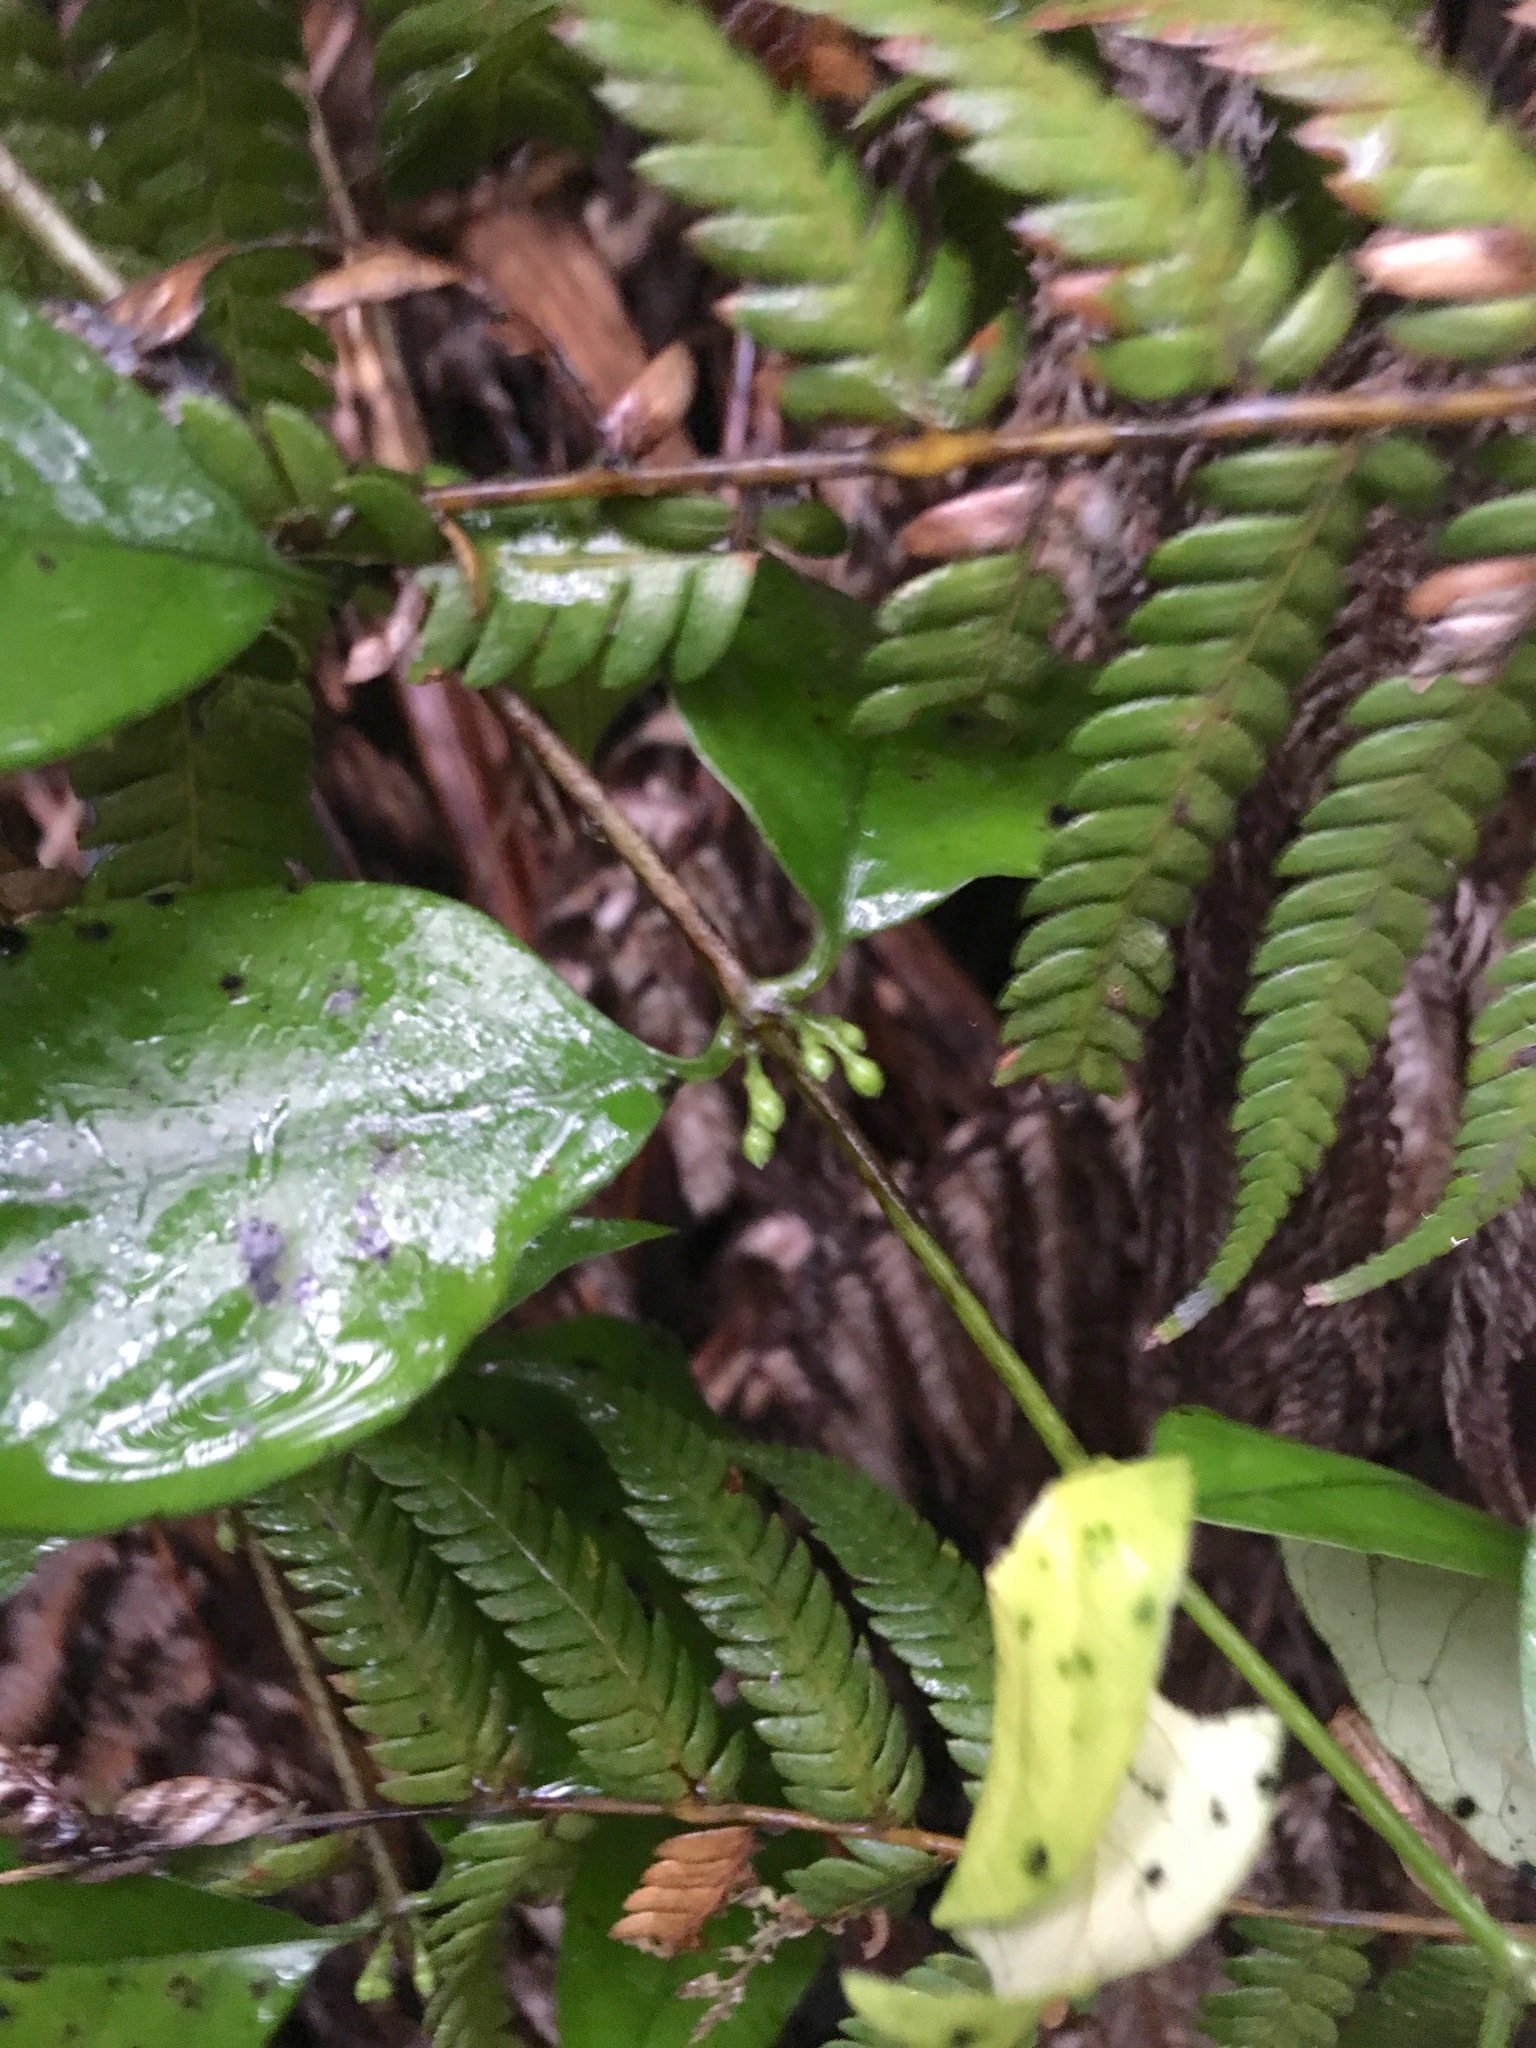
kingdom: Plantae
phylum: Tracheophyta
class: Magnoliopsida
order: Gentianales
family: Loganiaceae
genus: Geniostoma
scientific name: Geniostoma ligustrifolium
